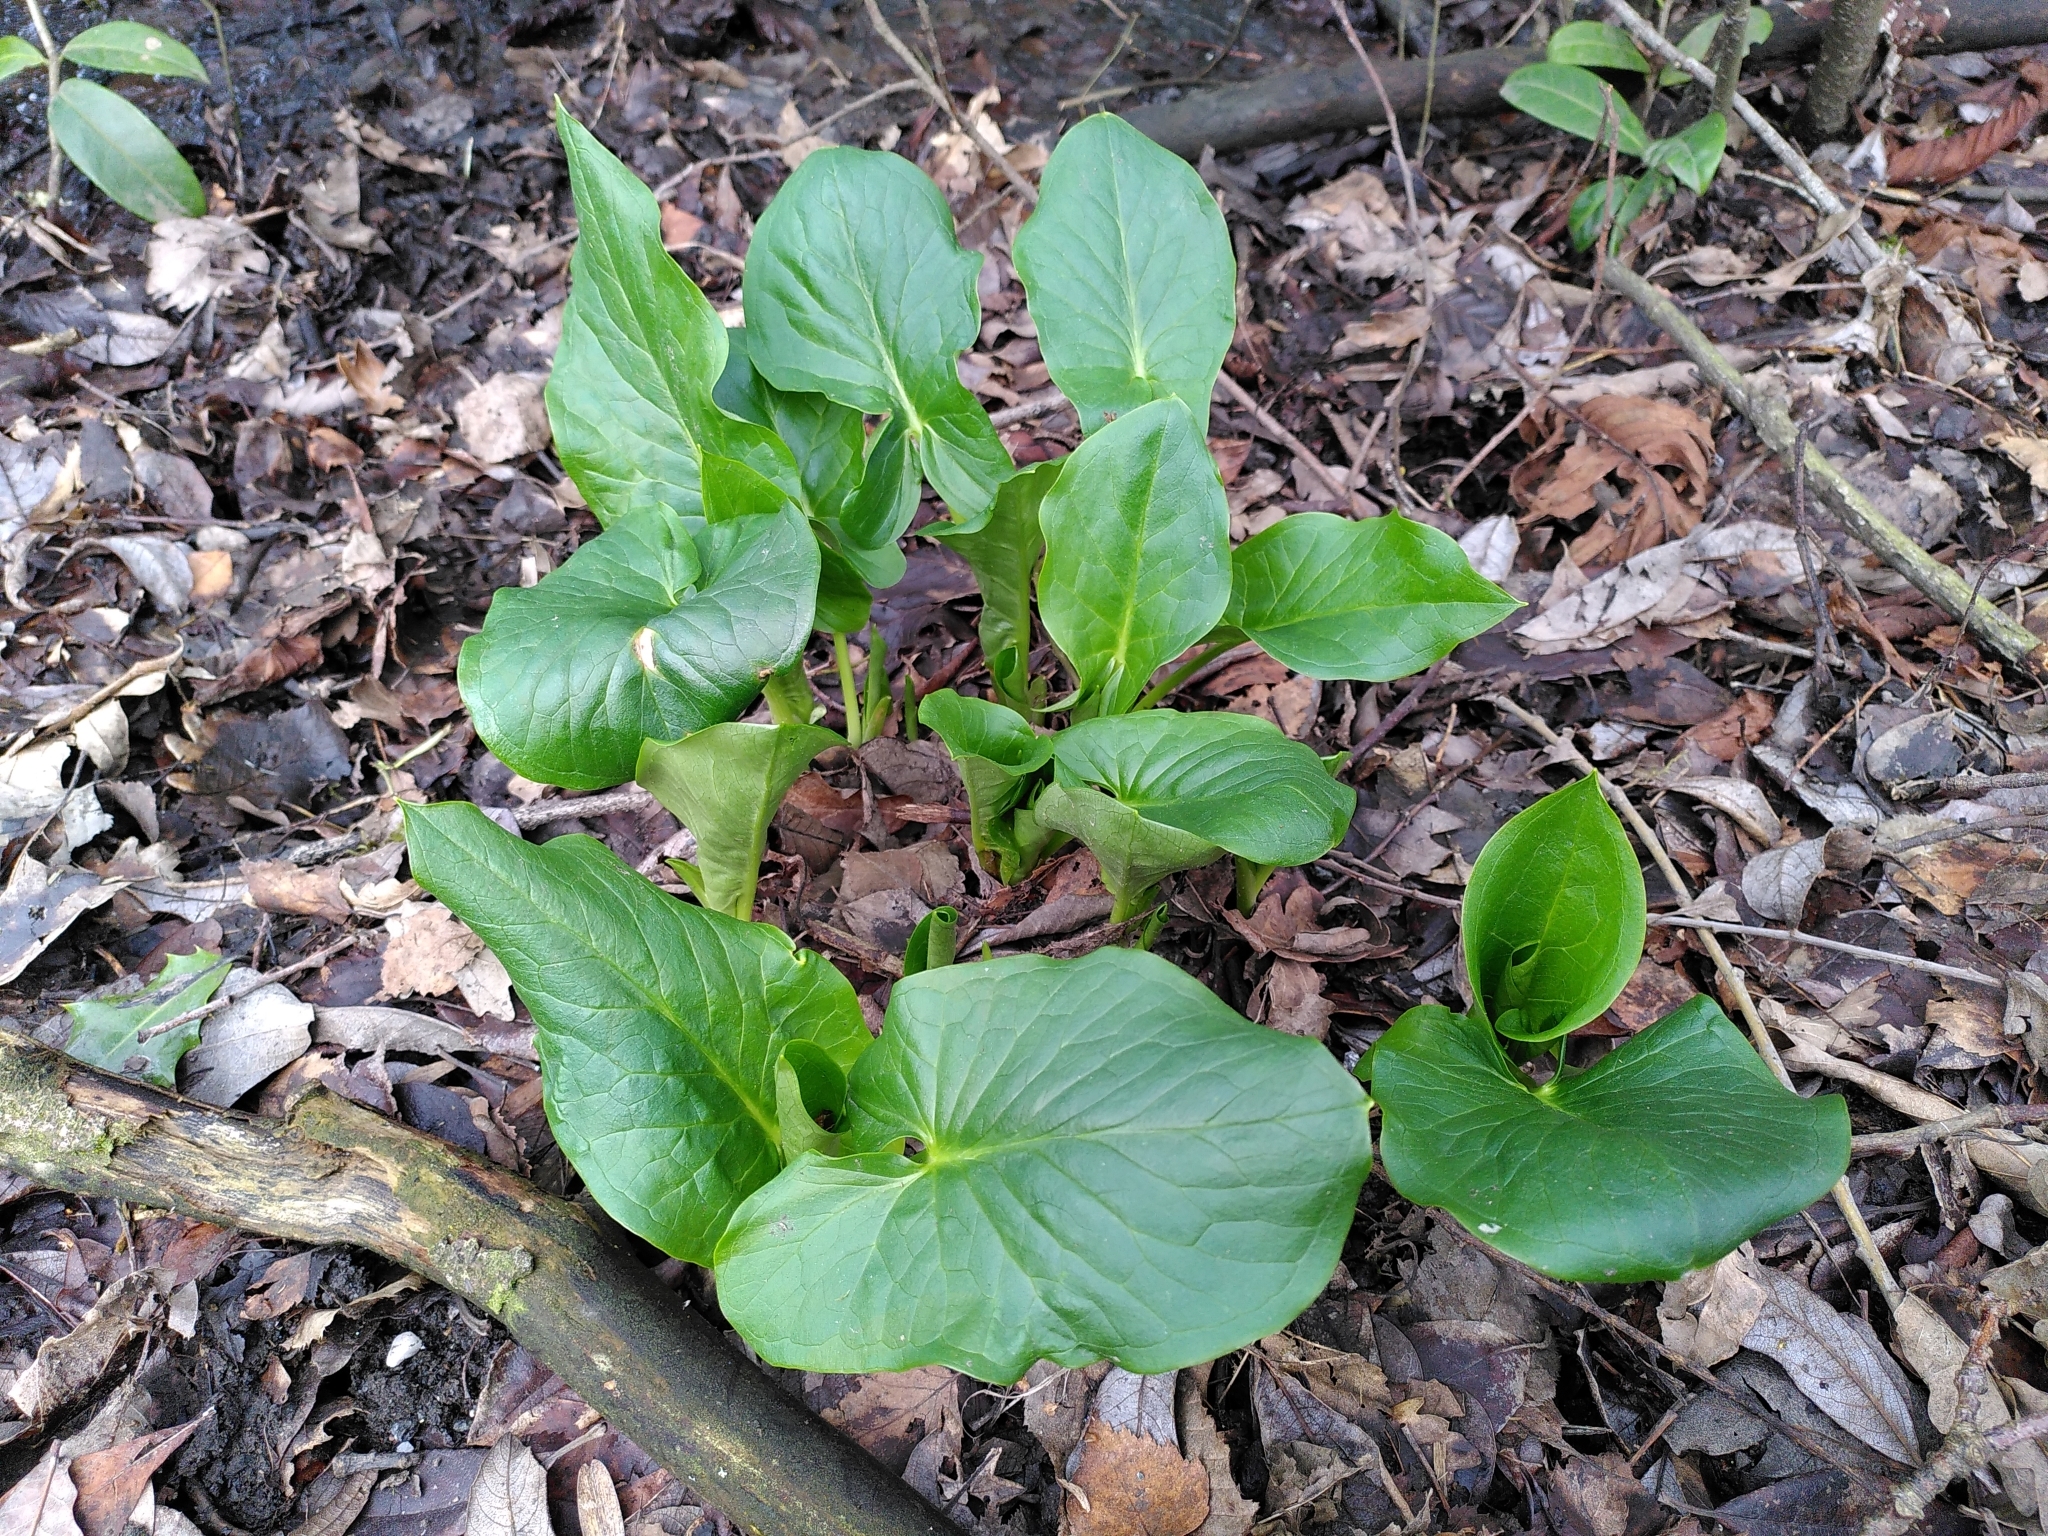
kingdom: Plantae
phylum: Tracheophyta
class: Liliopsida
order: Alismatales
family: Araceae
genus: Arum
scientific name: Arum maculatum
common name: Lords-and-ladies
